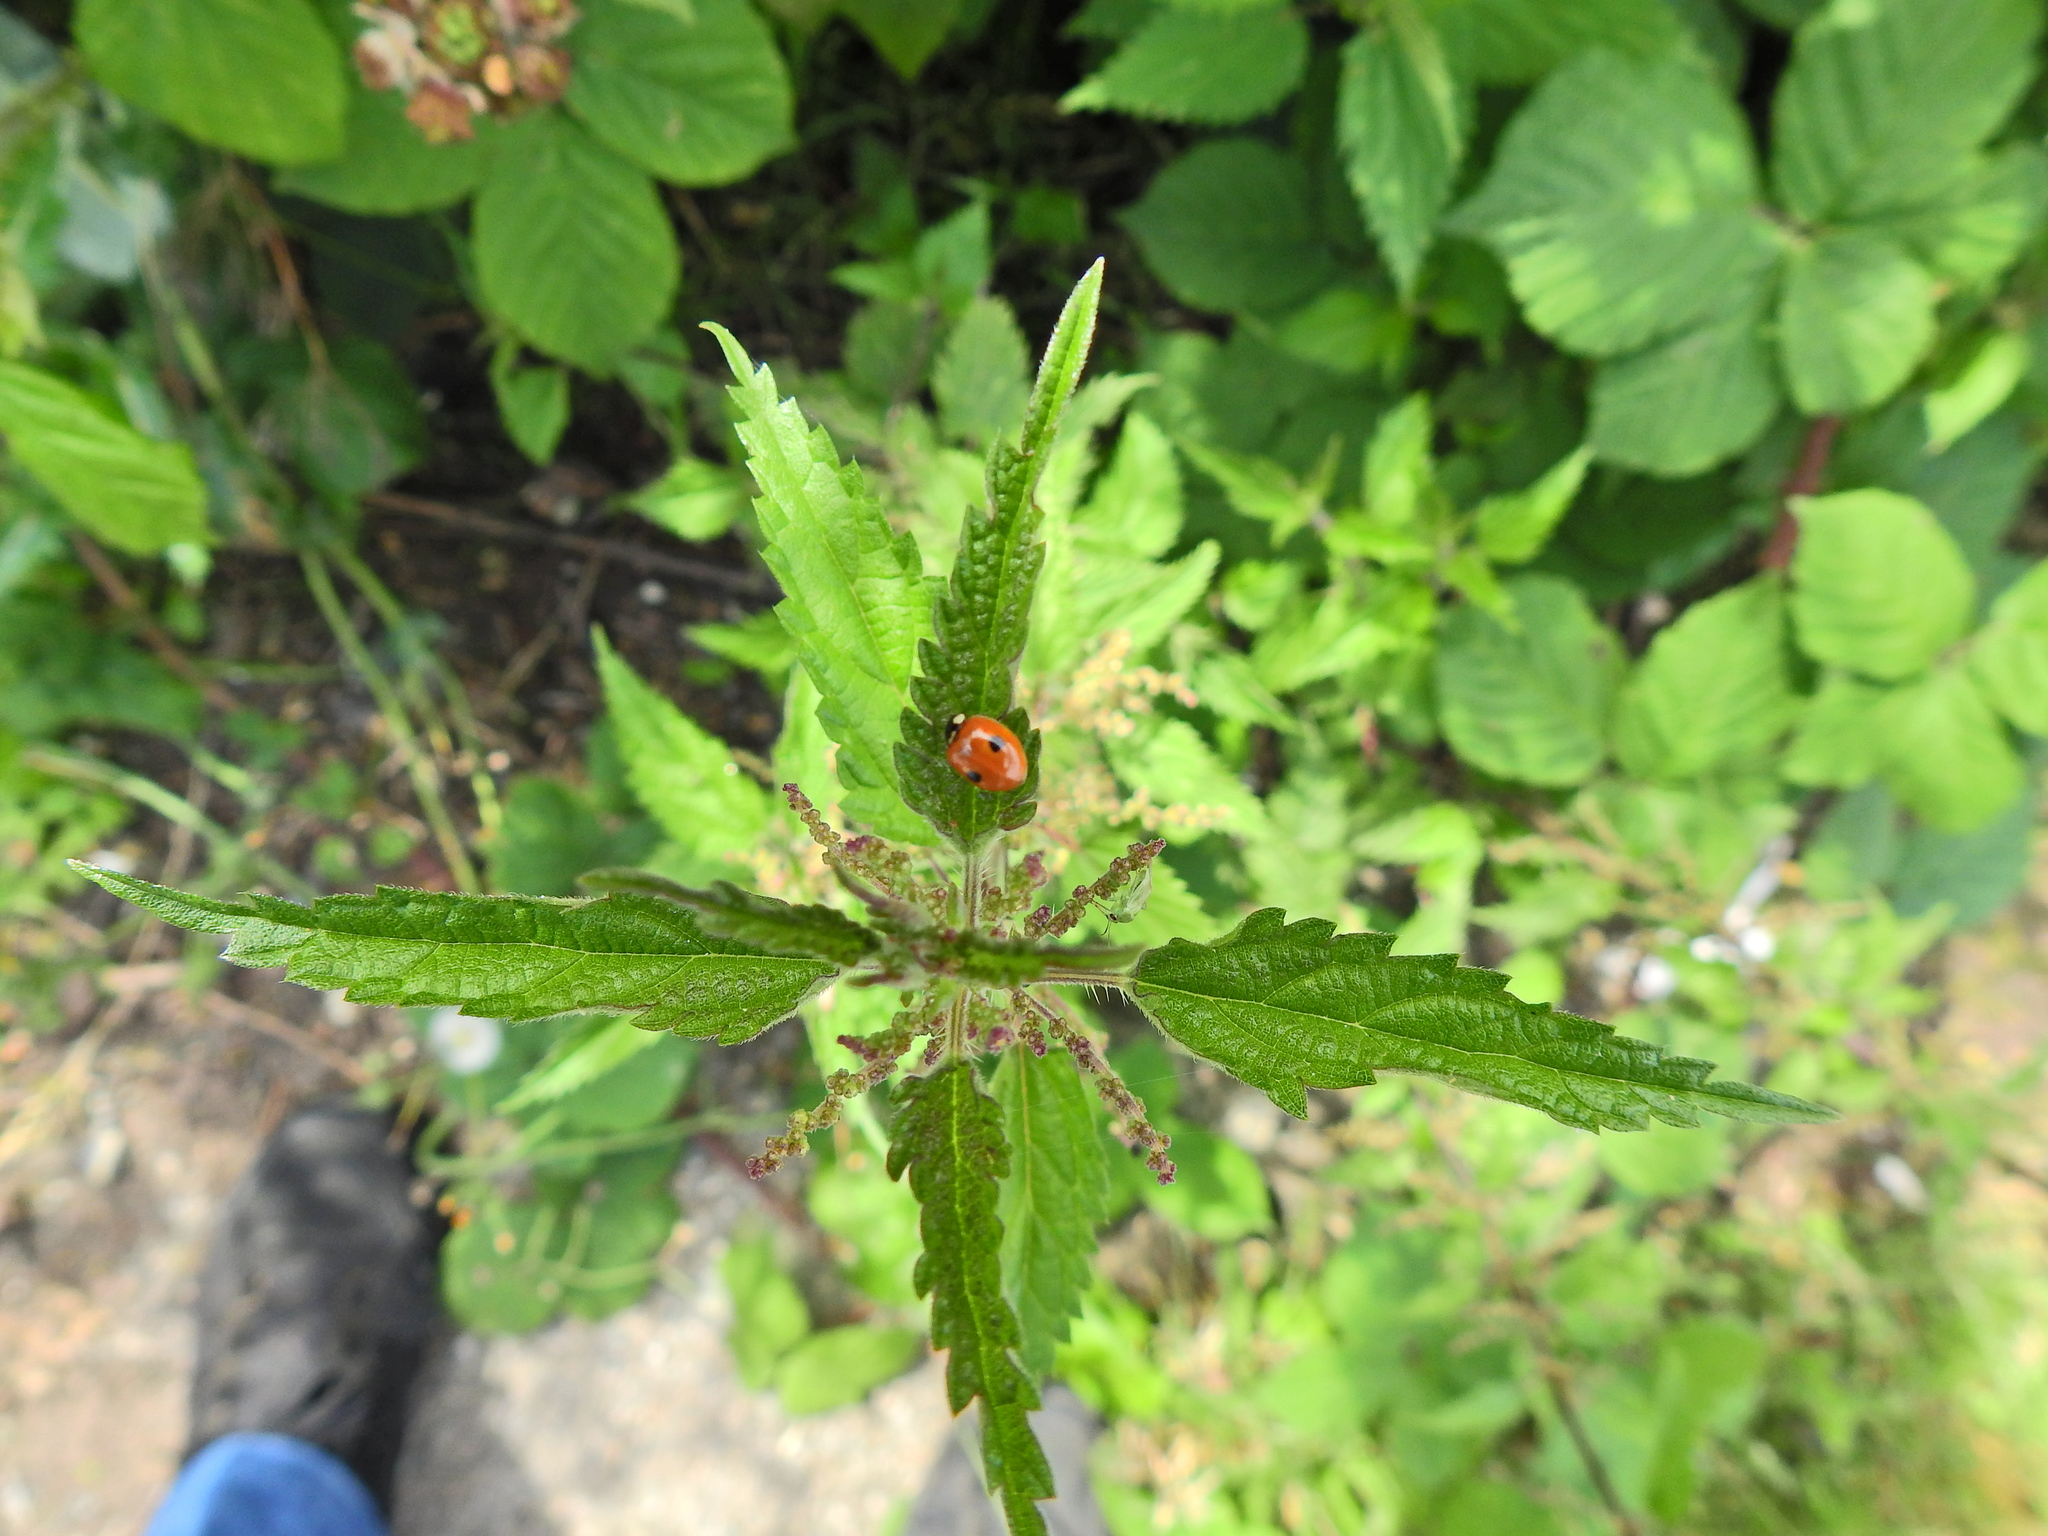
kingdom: Animalia
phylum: Arthropoda
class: Insecta
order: Coleoptera
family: Coccinellidae
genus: Adalia
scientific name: Adalia bipunctata
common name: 2-spot ladybird
